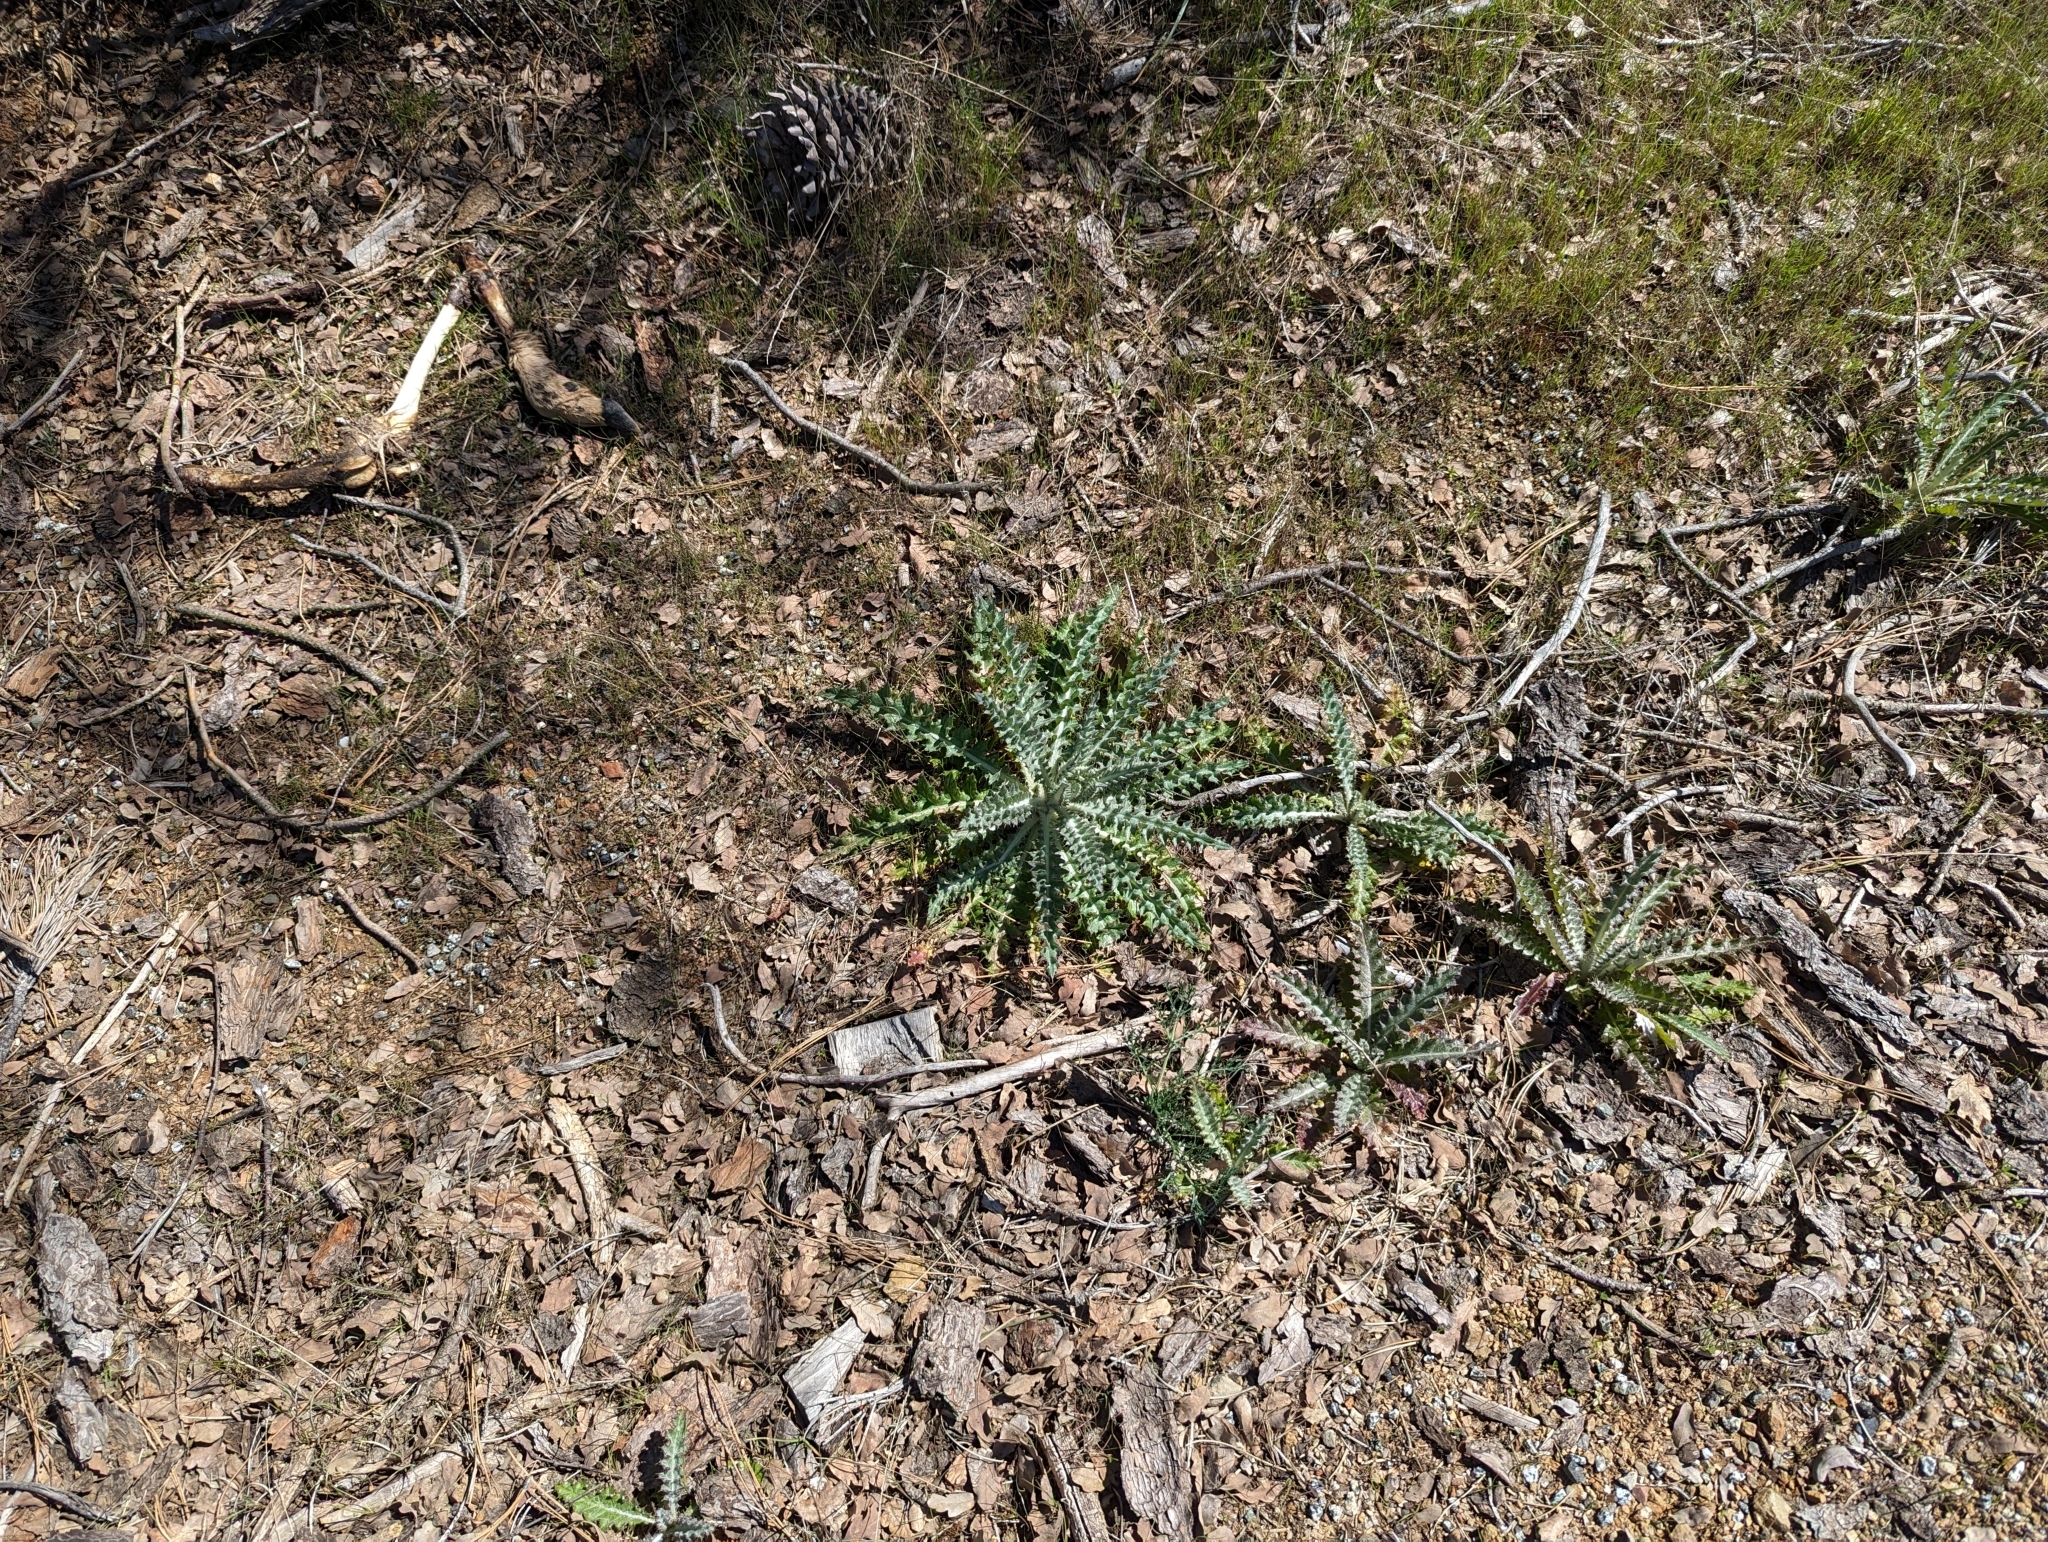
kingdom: Plantae
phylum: Tracheophyta
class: Magnoliopsida
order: Asterales
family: Asteraceae
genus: Cirsium
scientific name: Cirsium occidentale
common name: Western thistle
